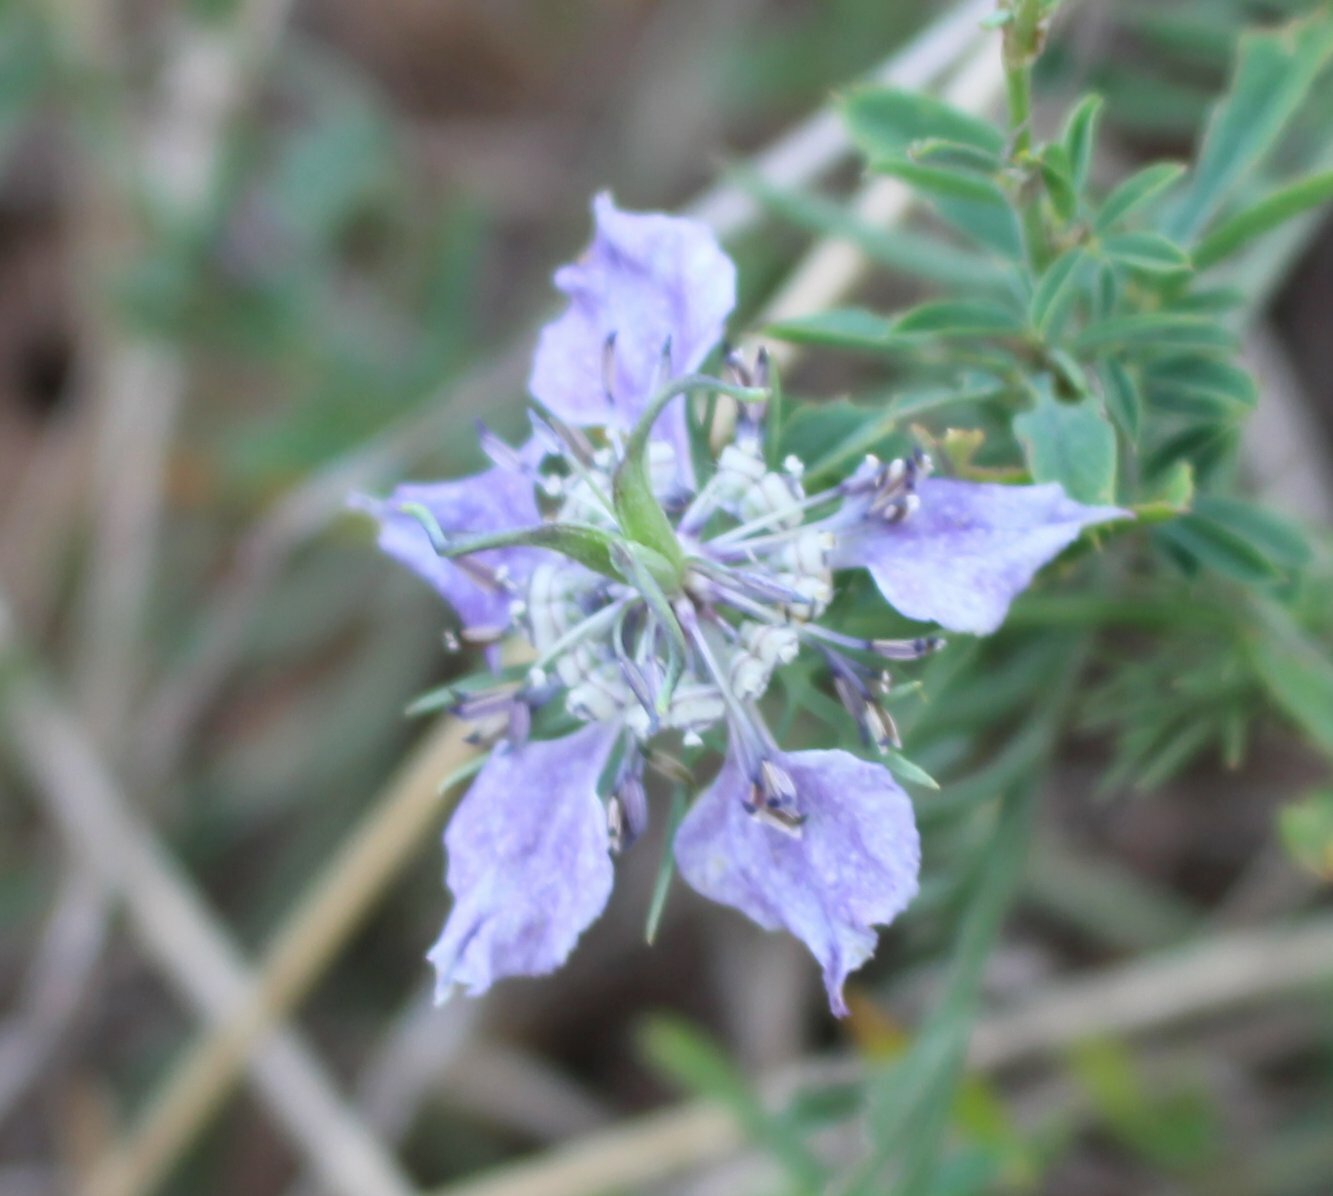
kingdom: Plantae
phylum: Tracheophyta
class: Magnoliopsida
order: Ranunculales
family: Ranunculaceae
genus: Nigella
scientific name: Nigella arvensis
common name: Wild fennel-flower
